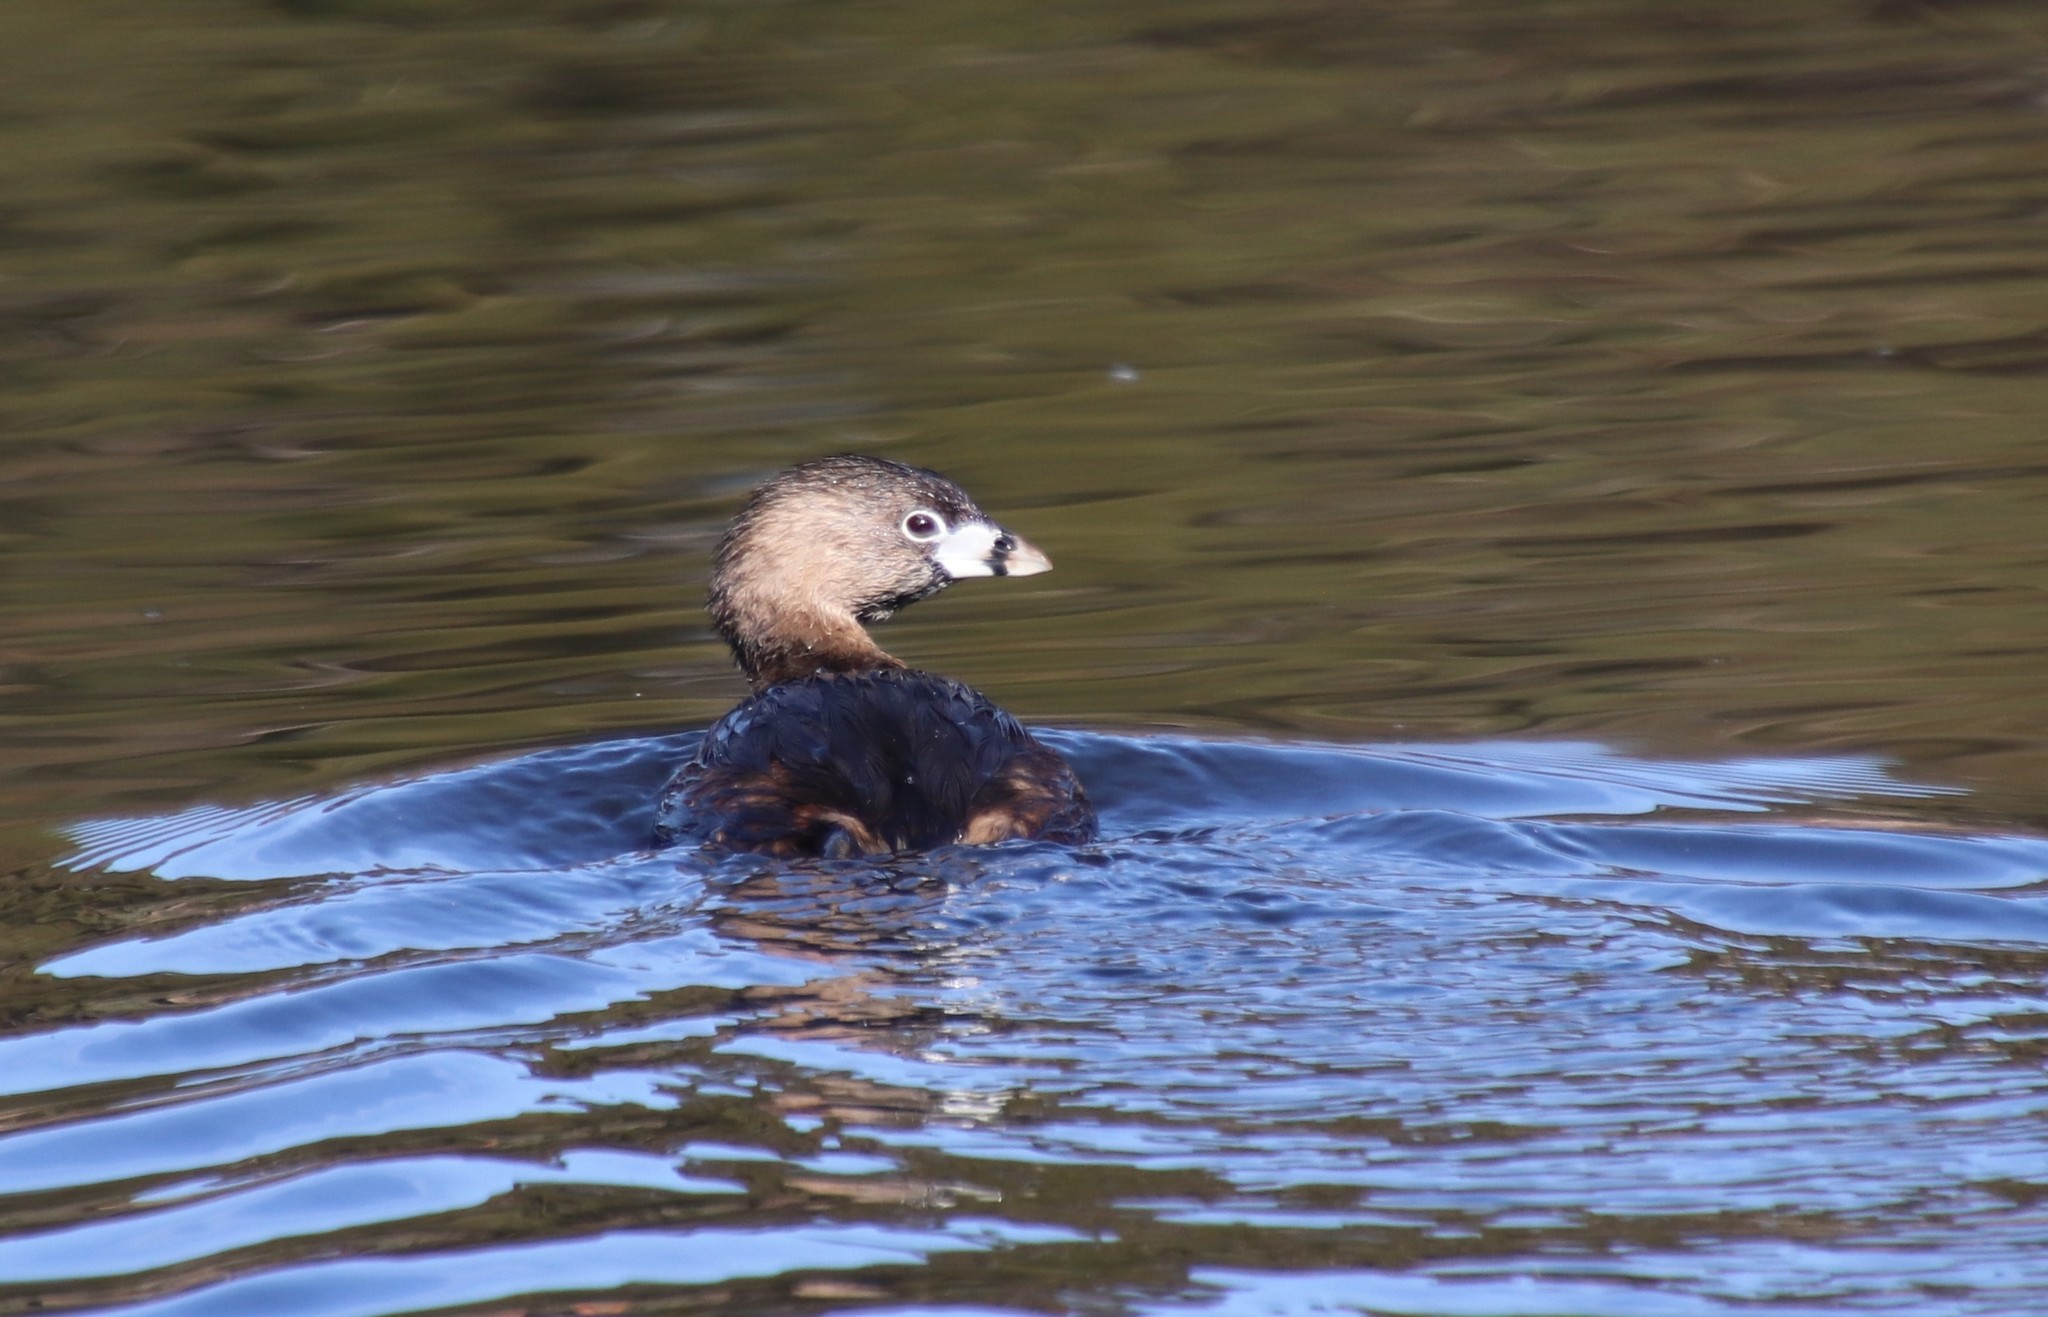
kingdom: Animalia
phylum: Chordata
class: Aves
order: Podicipediformes
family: Podicipedidae
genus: Podilymbus
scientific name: Podilymbus podiceps
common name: Pied-billed grebe
